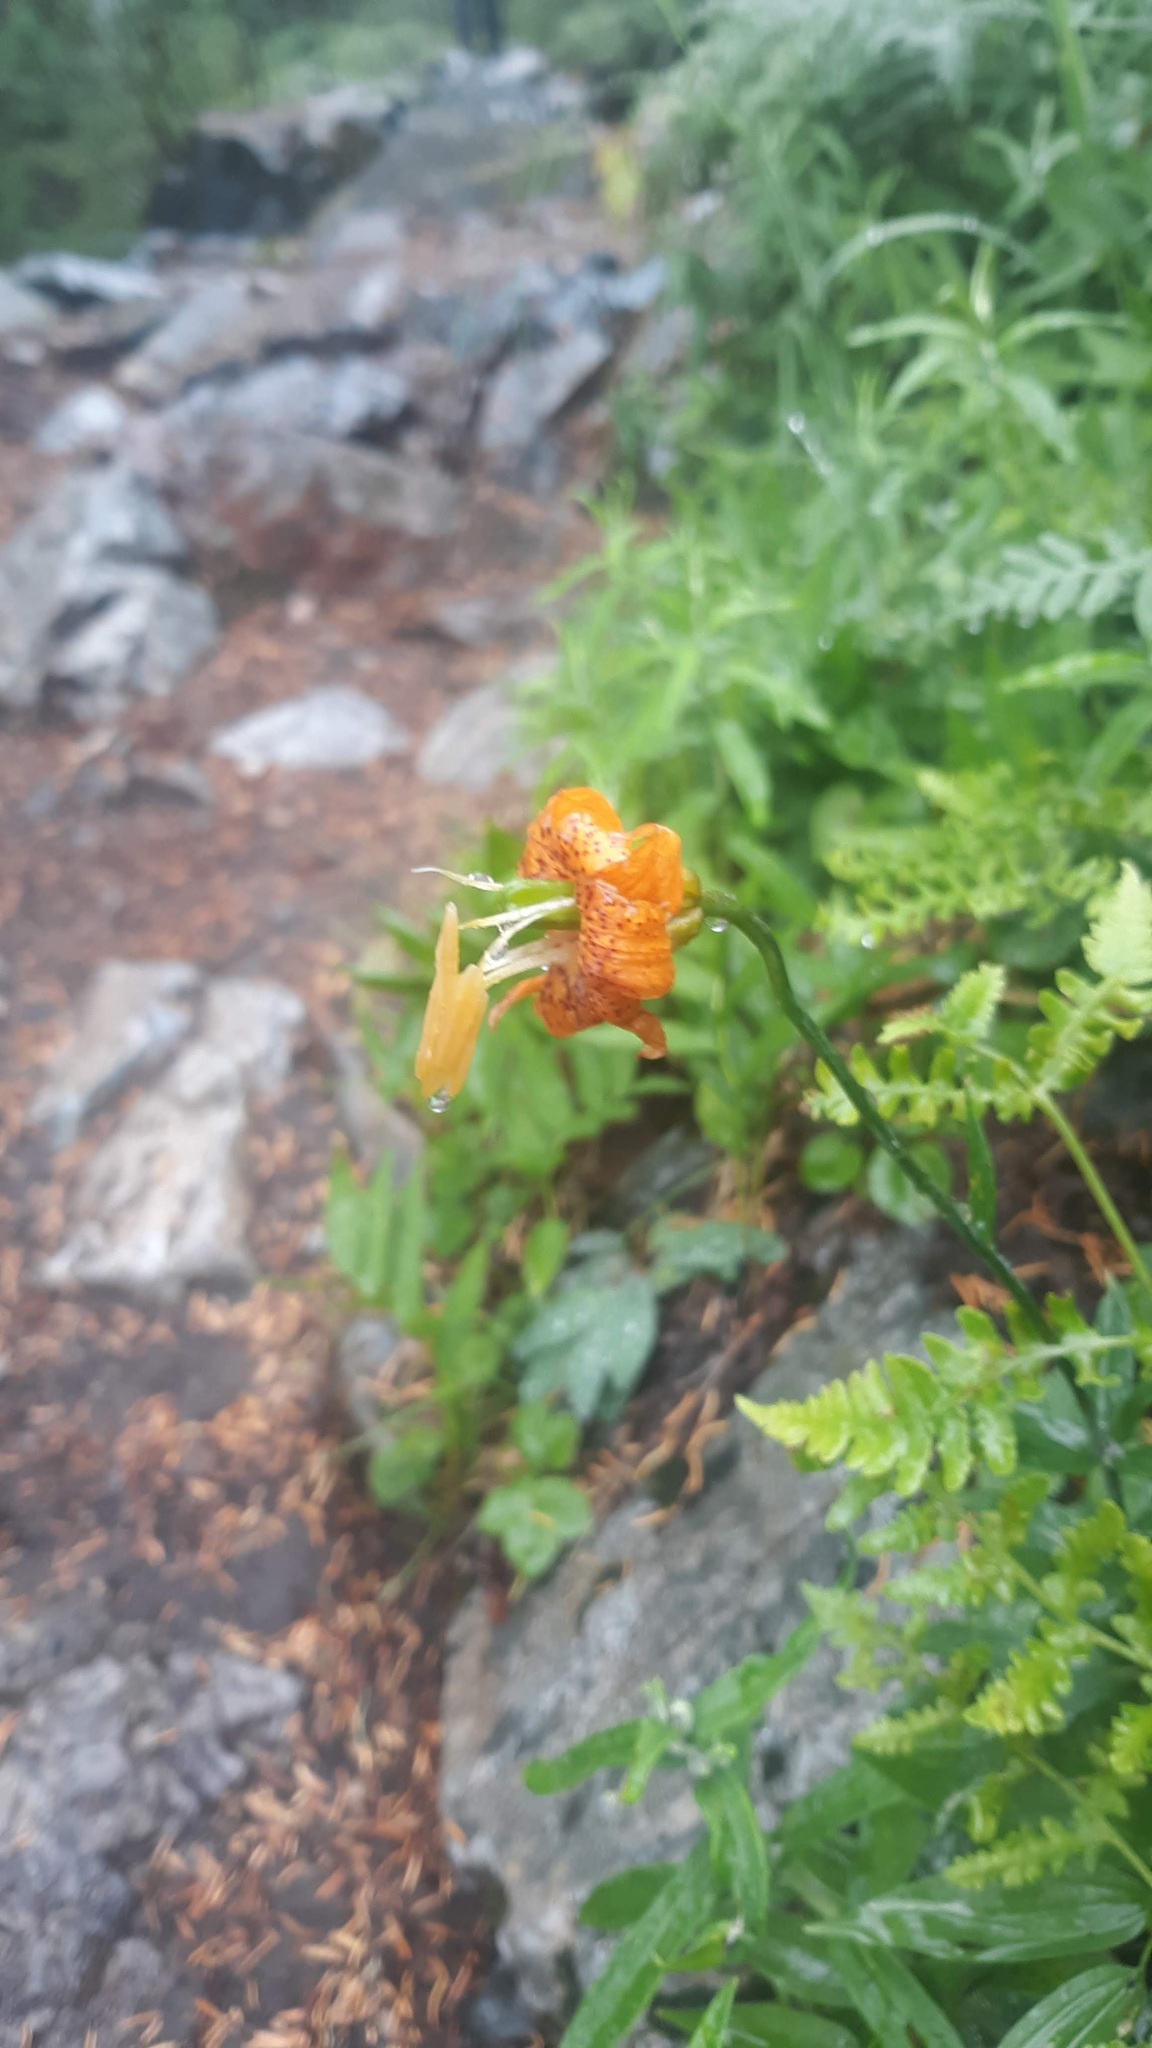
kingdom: Plantae
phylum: Tracheophyta
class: Liliopsida
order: Liliales
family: Liliaceae
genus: Lilium
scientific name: Lilium columbianum
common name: Columbia lily
